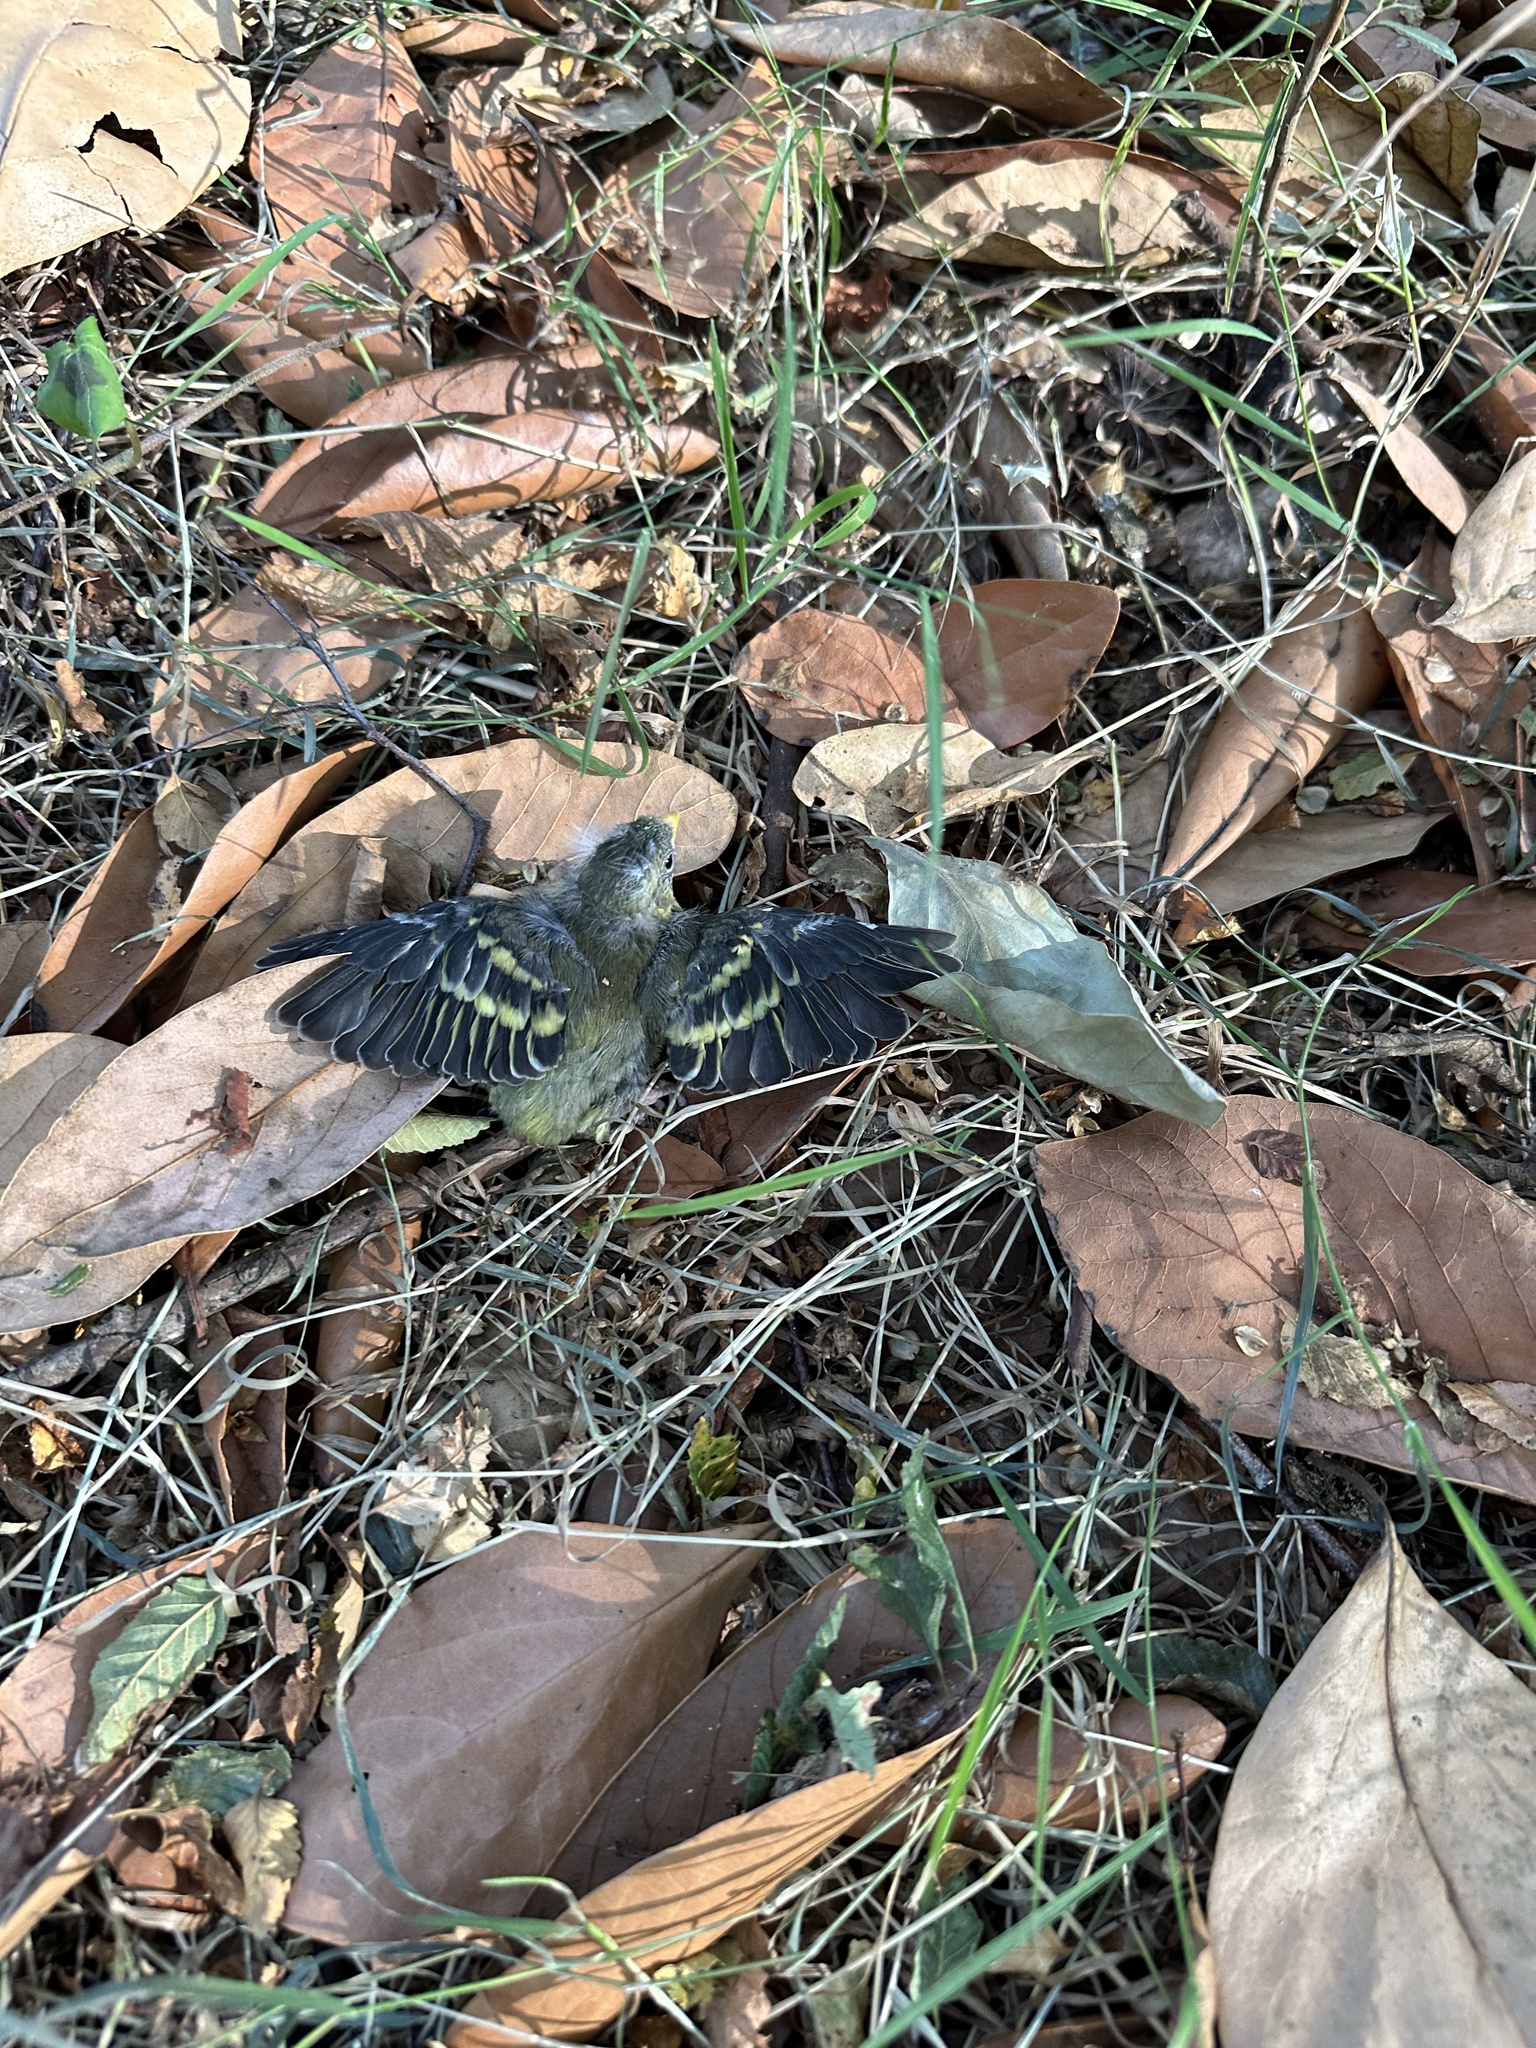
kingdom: Animalia
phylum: Chordata
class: Aves
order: Passeriformes
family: Fringillidae
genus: Spinus
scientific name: Spinus barbatus
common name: Black-chinned siskin
